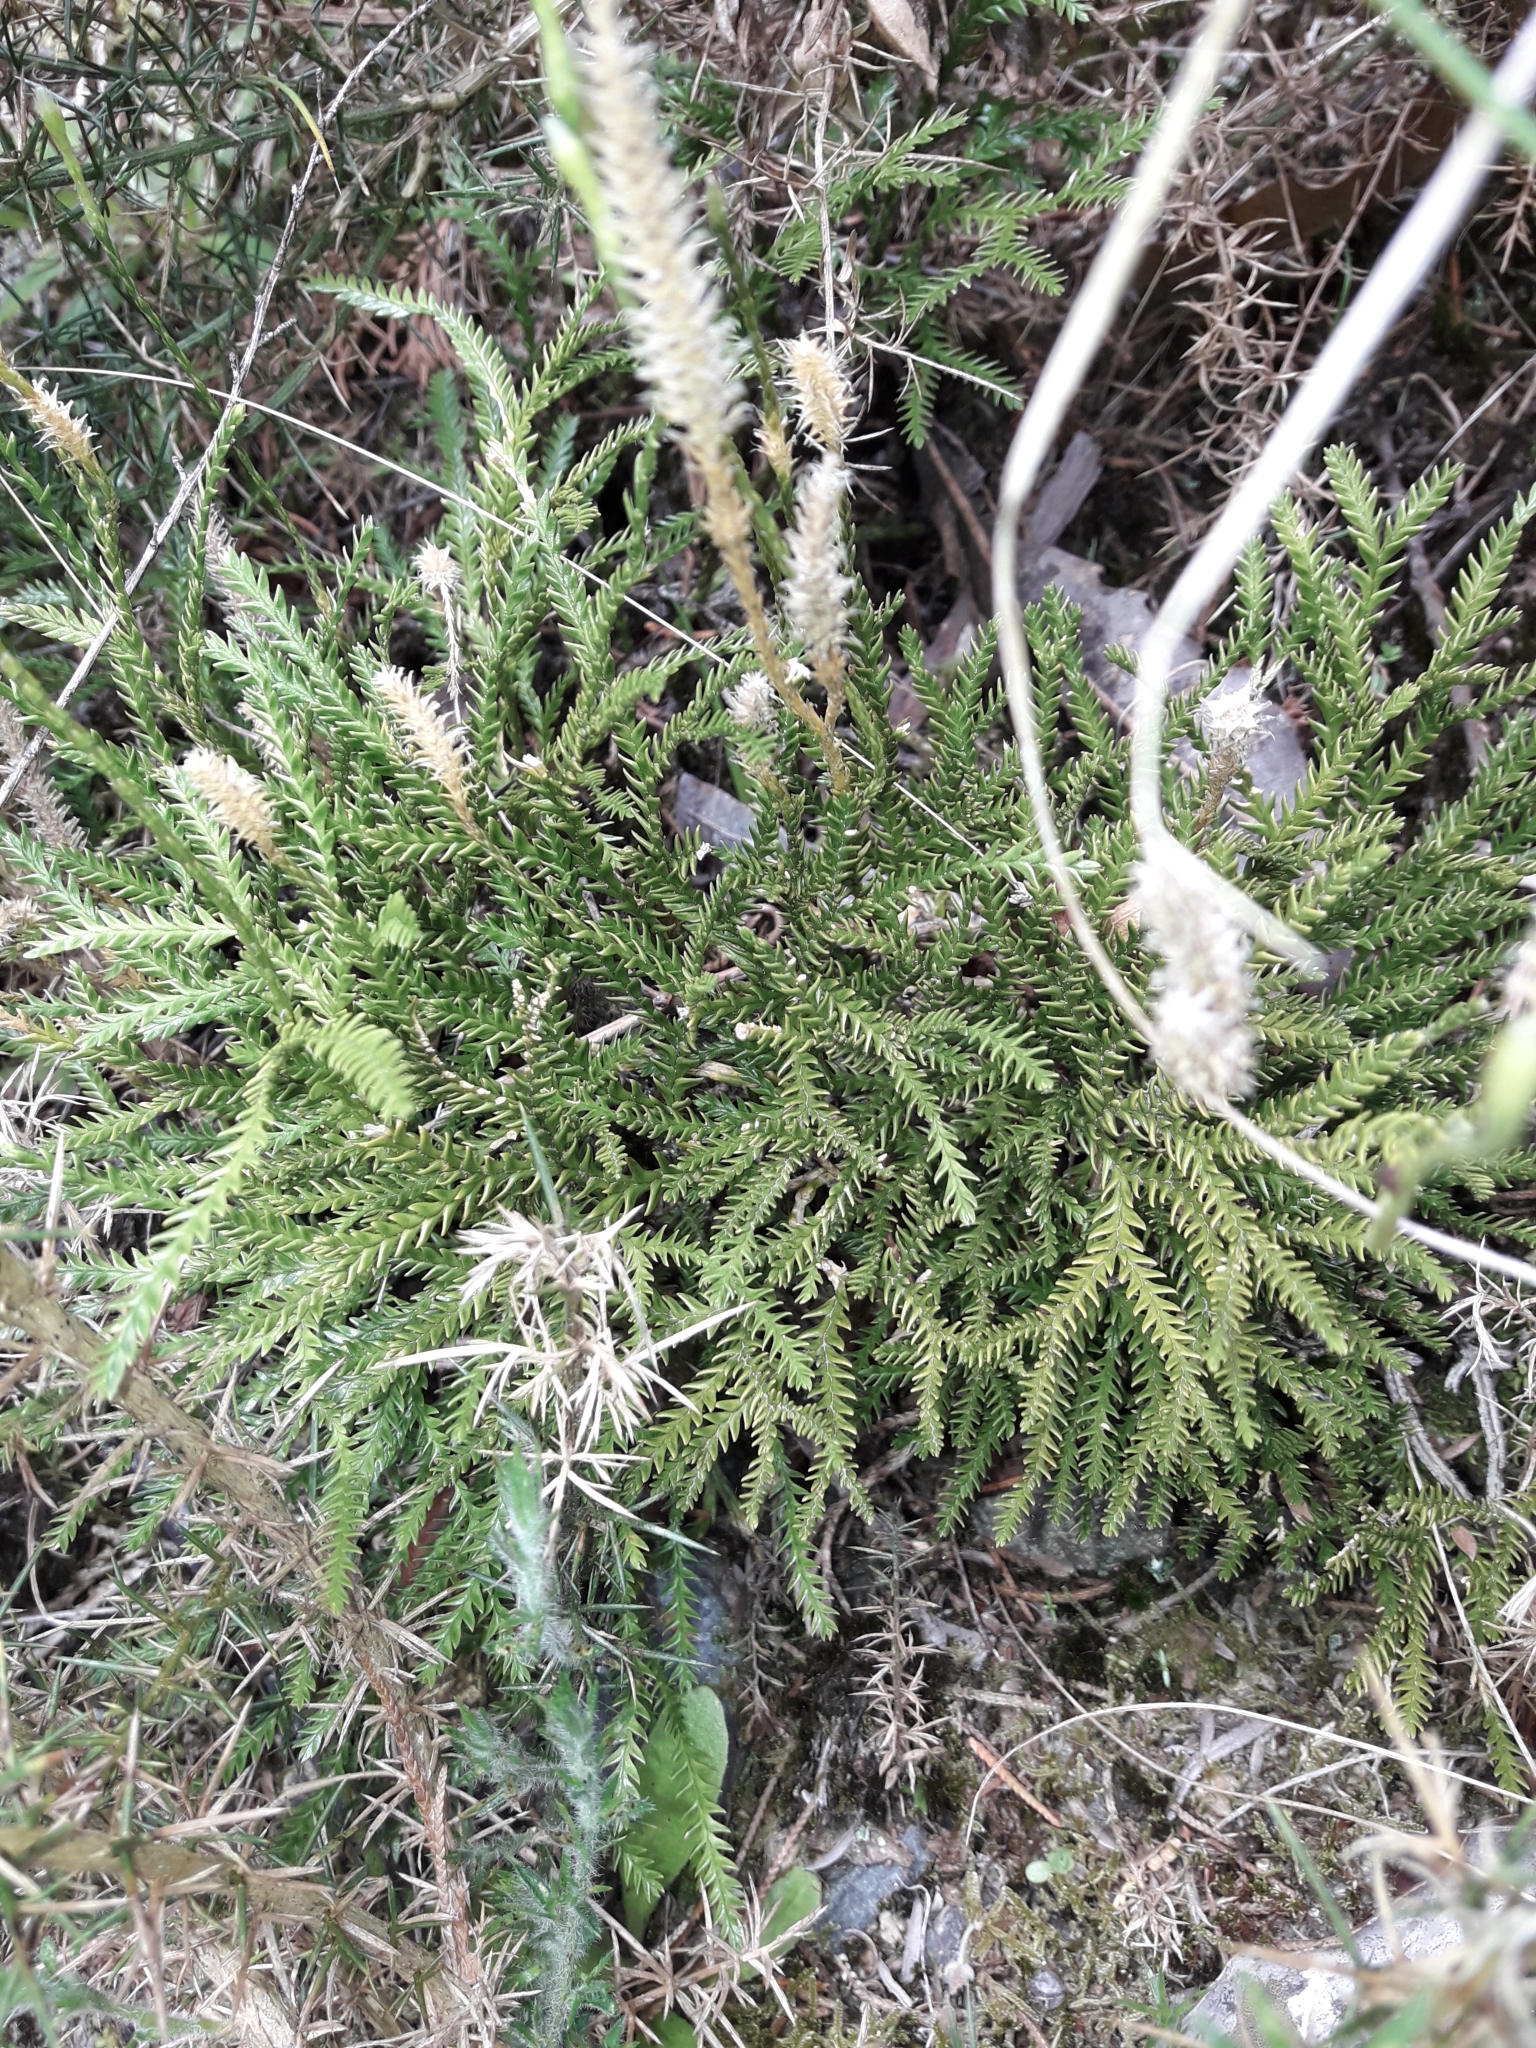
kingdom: Plantae
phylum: Tracheophyta
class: Lycopodiopsida
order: Lycopodiales
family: Lycopodiaceae
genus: Diphasium
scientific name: Diphasium scariosum
